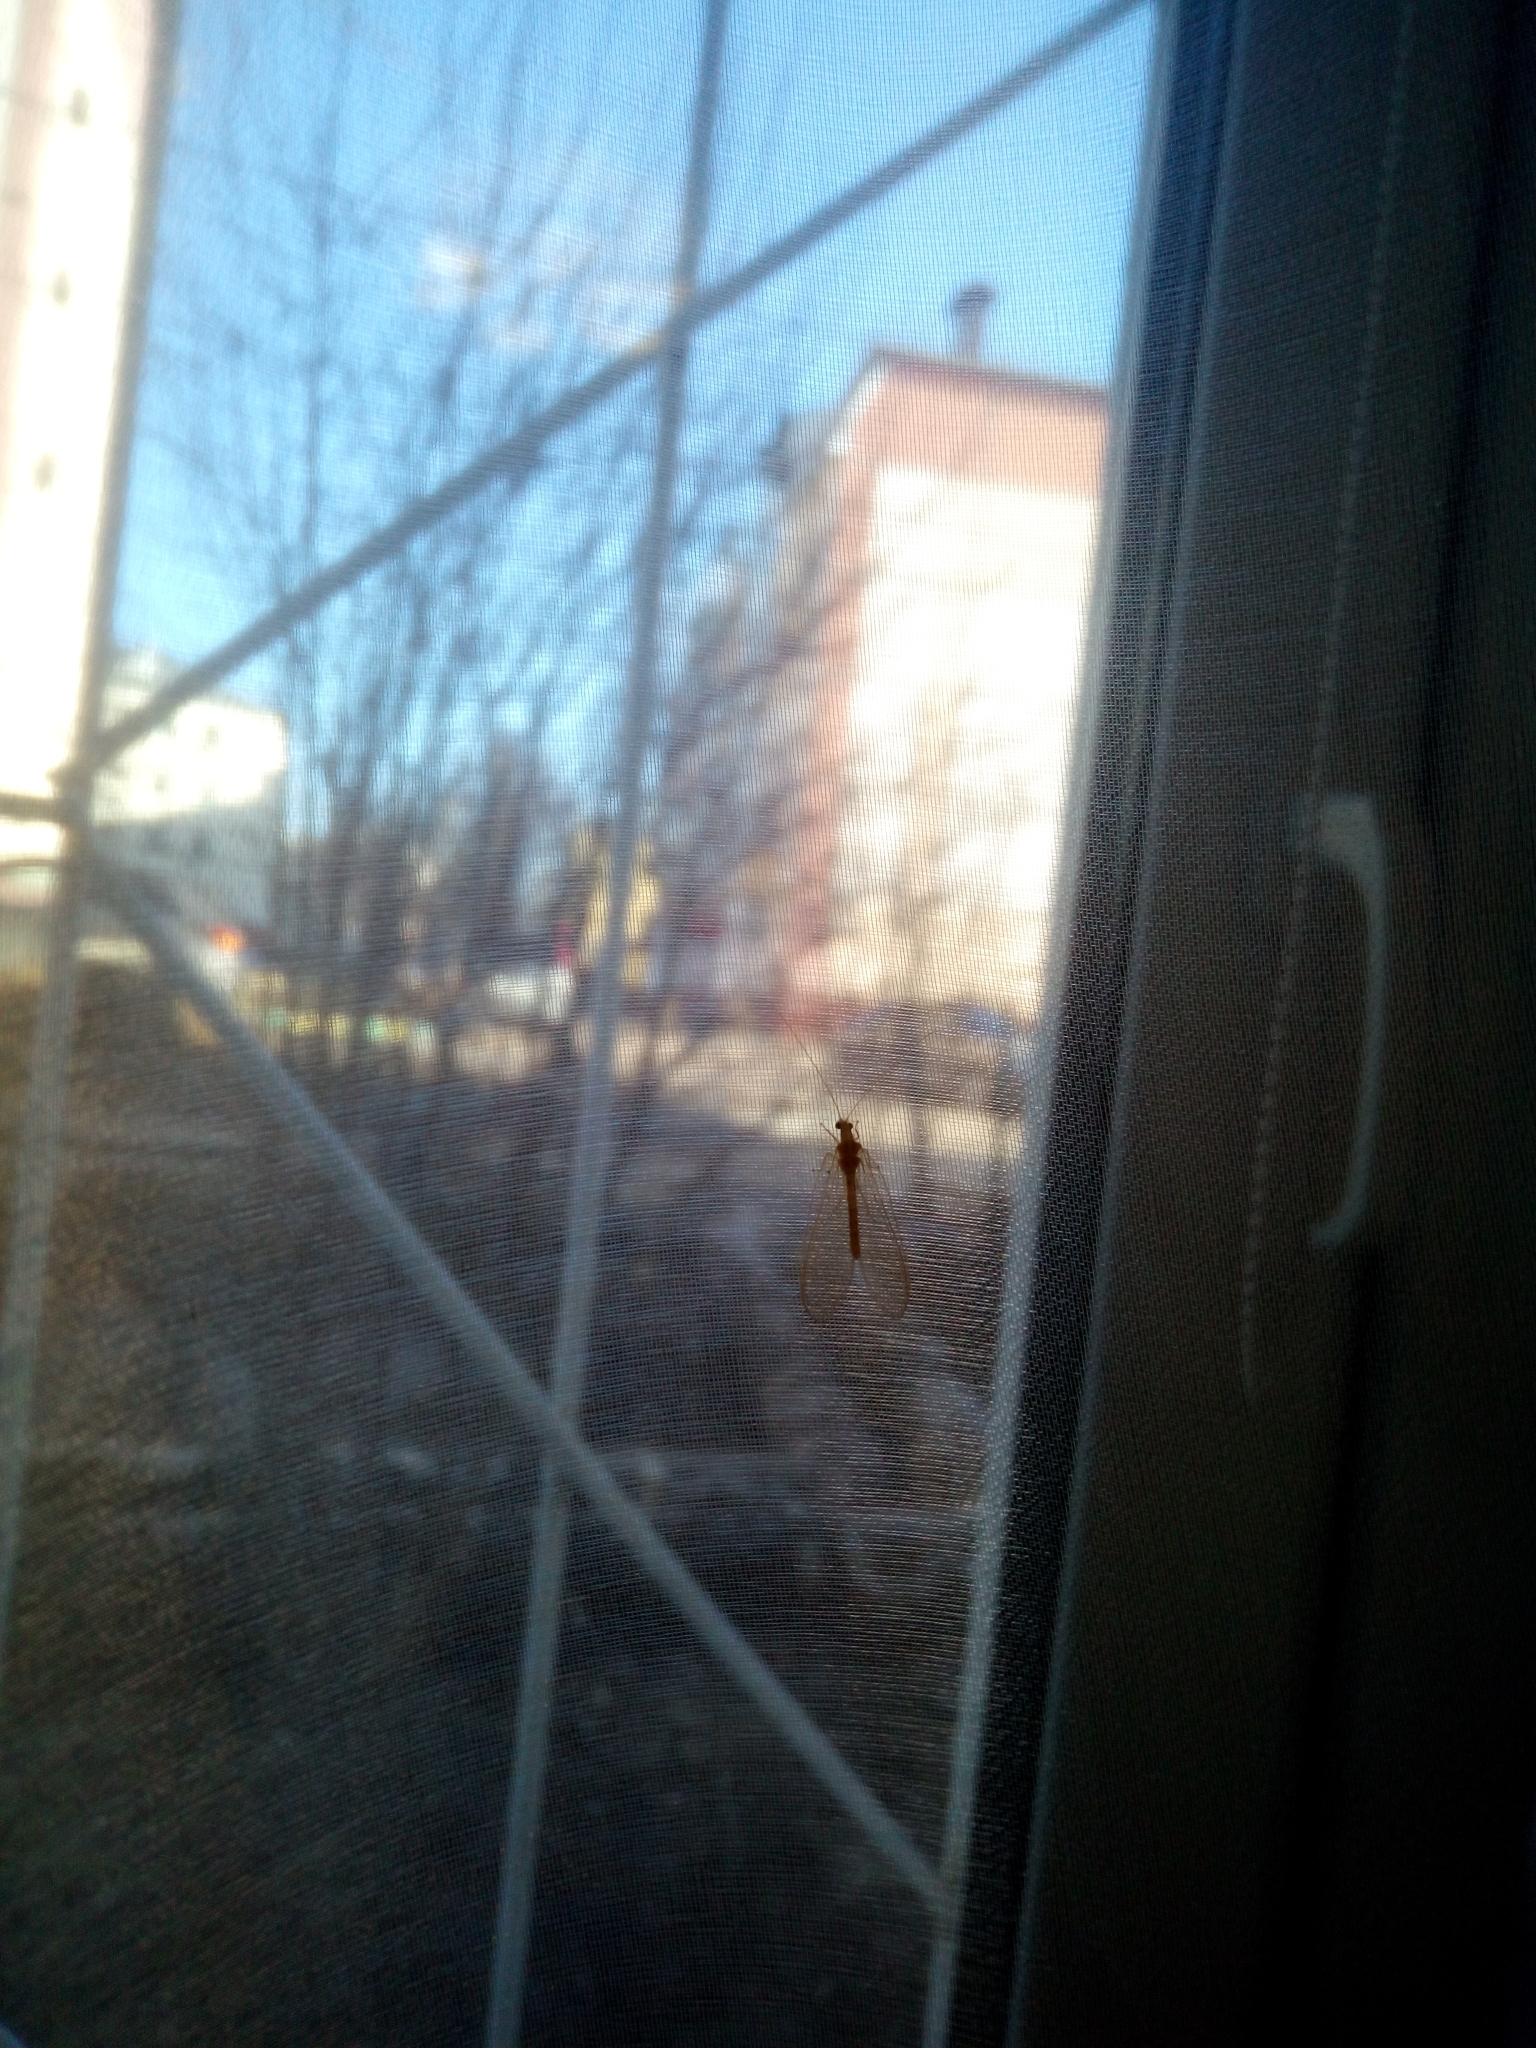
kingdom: Animalia
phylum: Arthropoda
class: Insecta
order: Neuroptera
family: Chrysopidae
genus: Chrysoperla
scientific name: Chrysoperla
